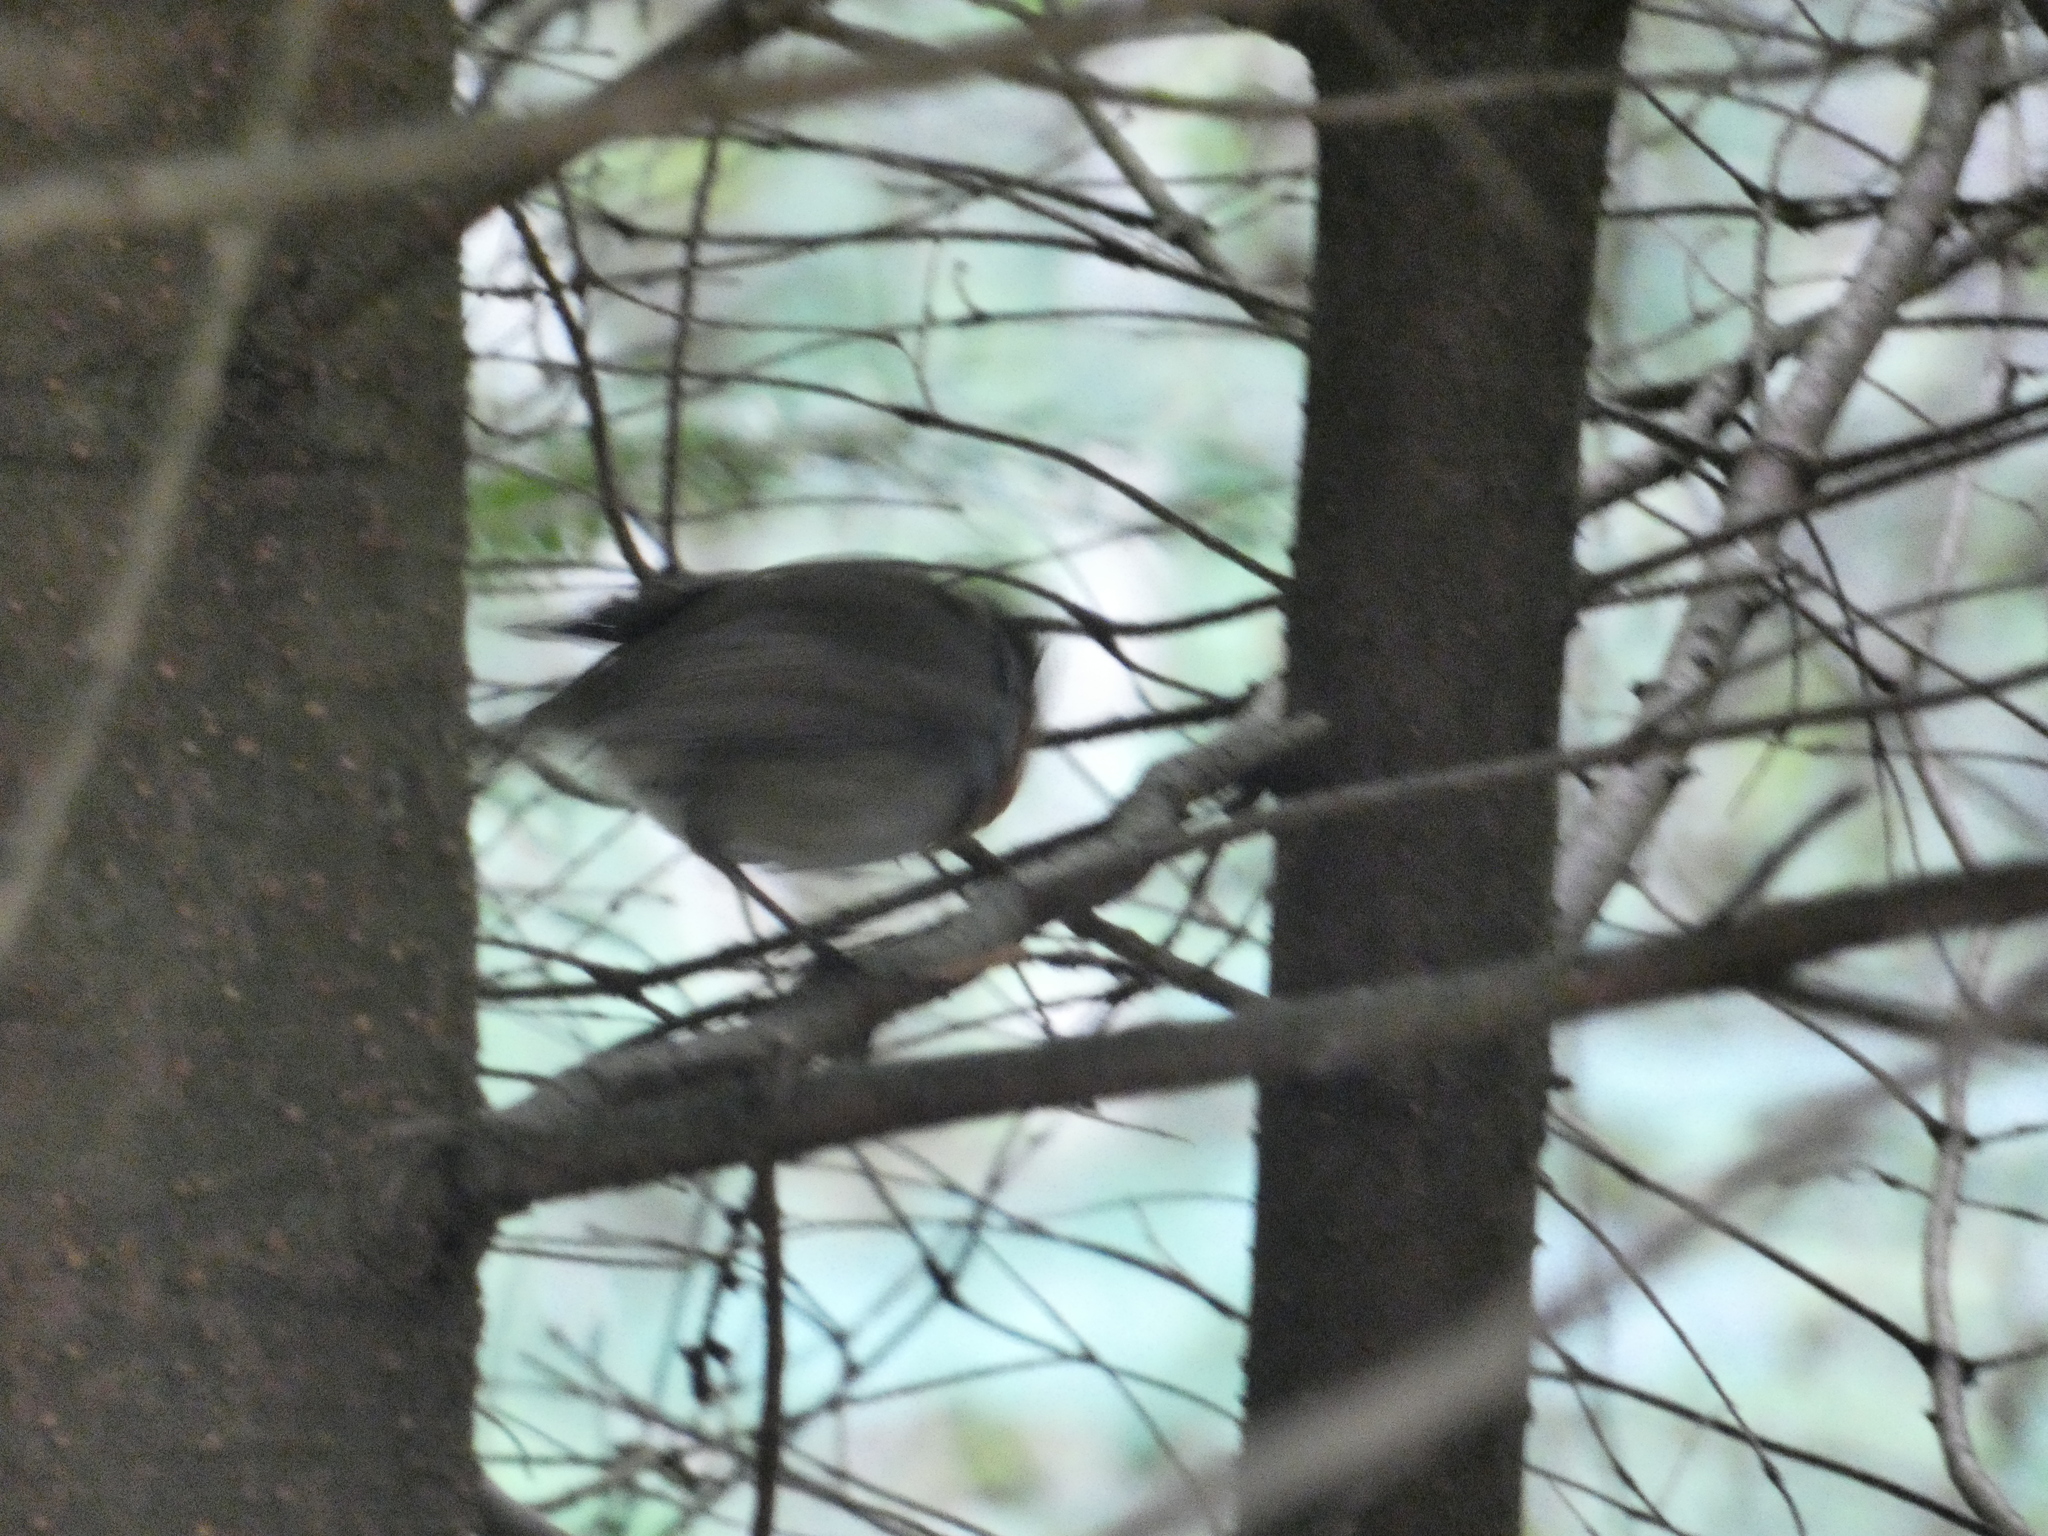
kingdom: Animalia
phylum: Chordata
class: Aves
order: Passeriformes
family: Muscicapidae
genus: Erithacus
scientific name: Erithacus rubecula
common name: European robin
